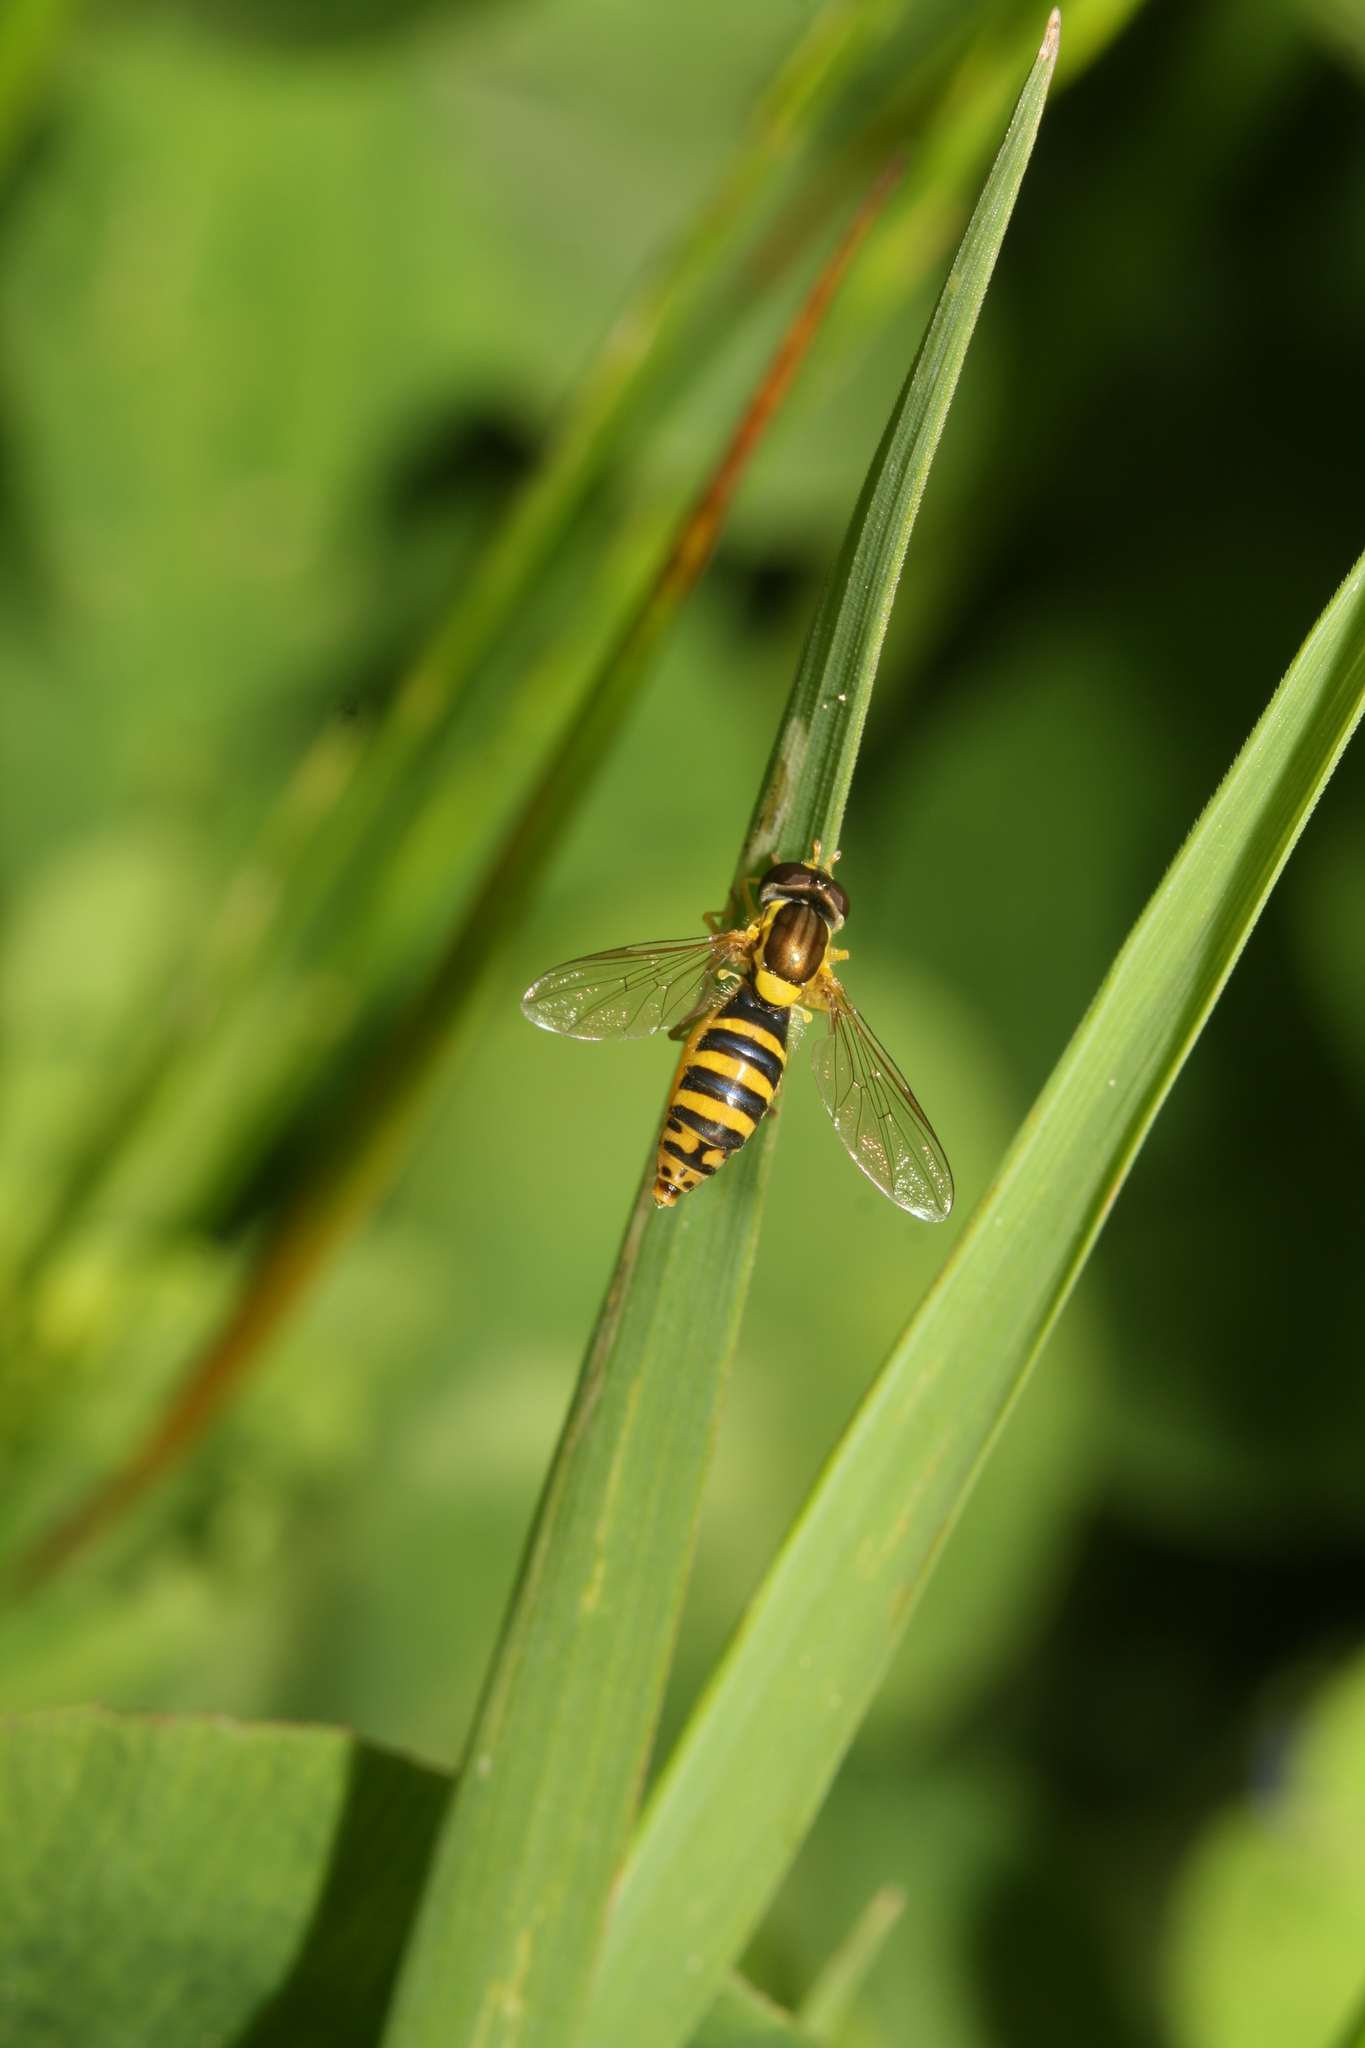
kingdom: Animalia
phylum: Arthropoda
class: Insecta
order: Diptera
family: Syrphidae
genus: Sphaerophoria
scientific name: Sphaerophoria
